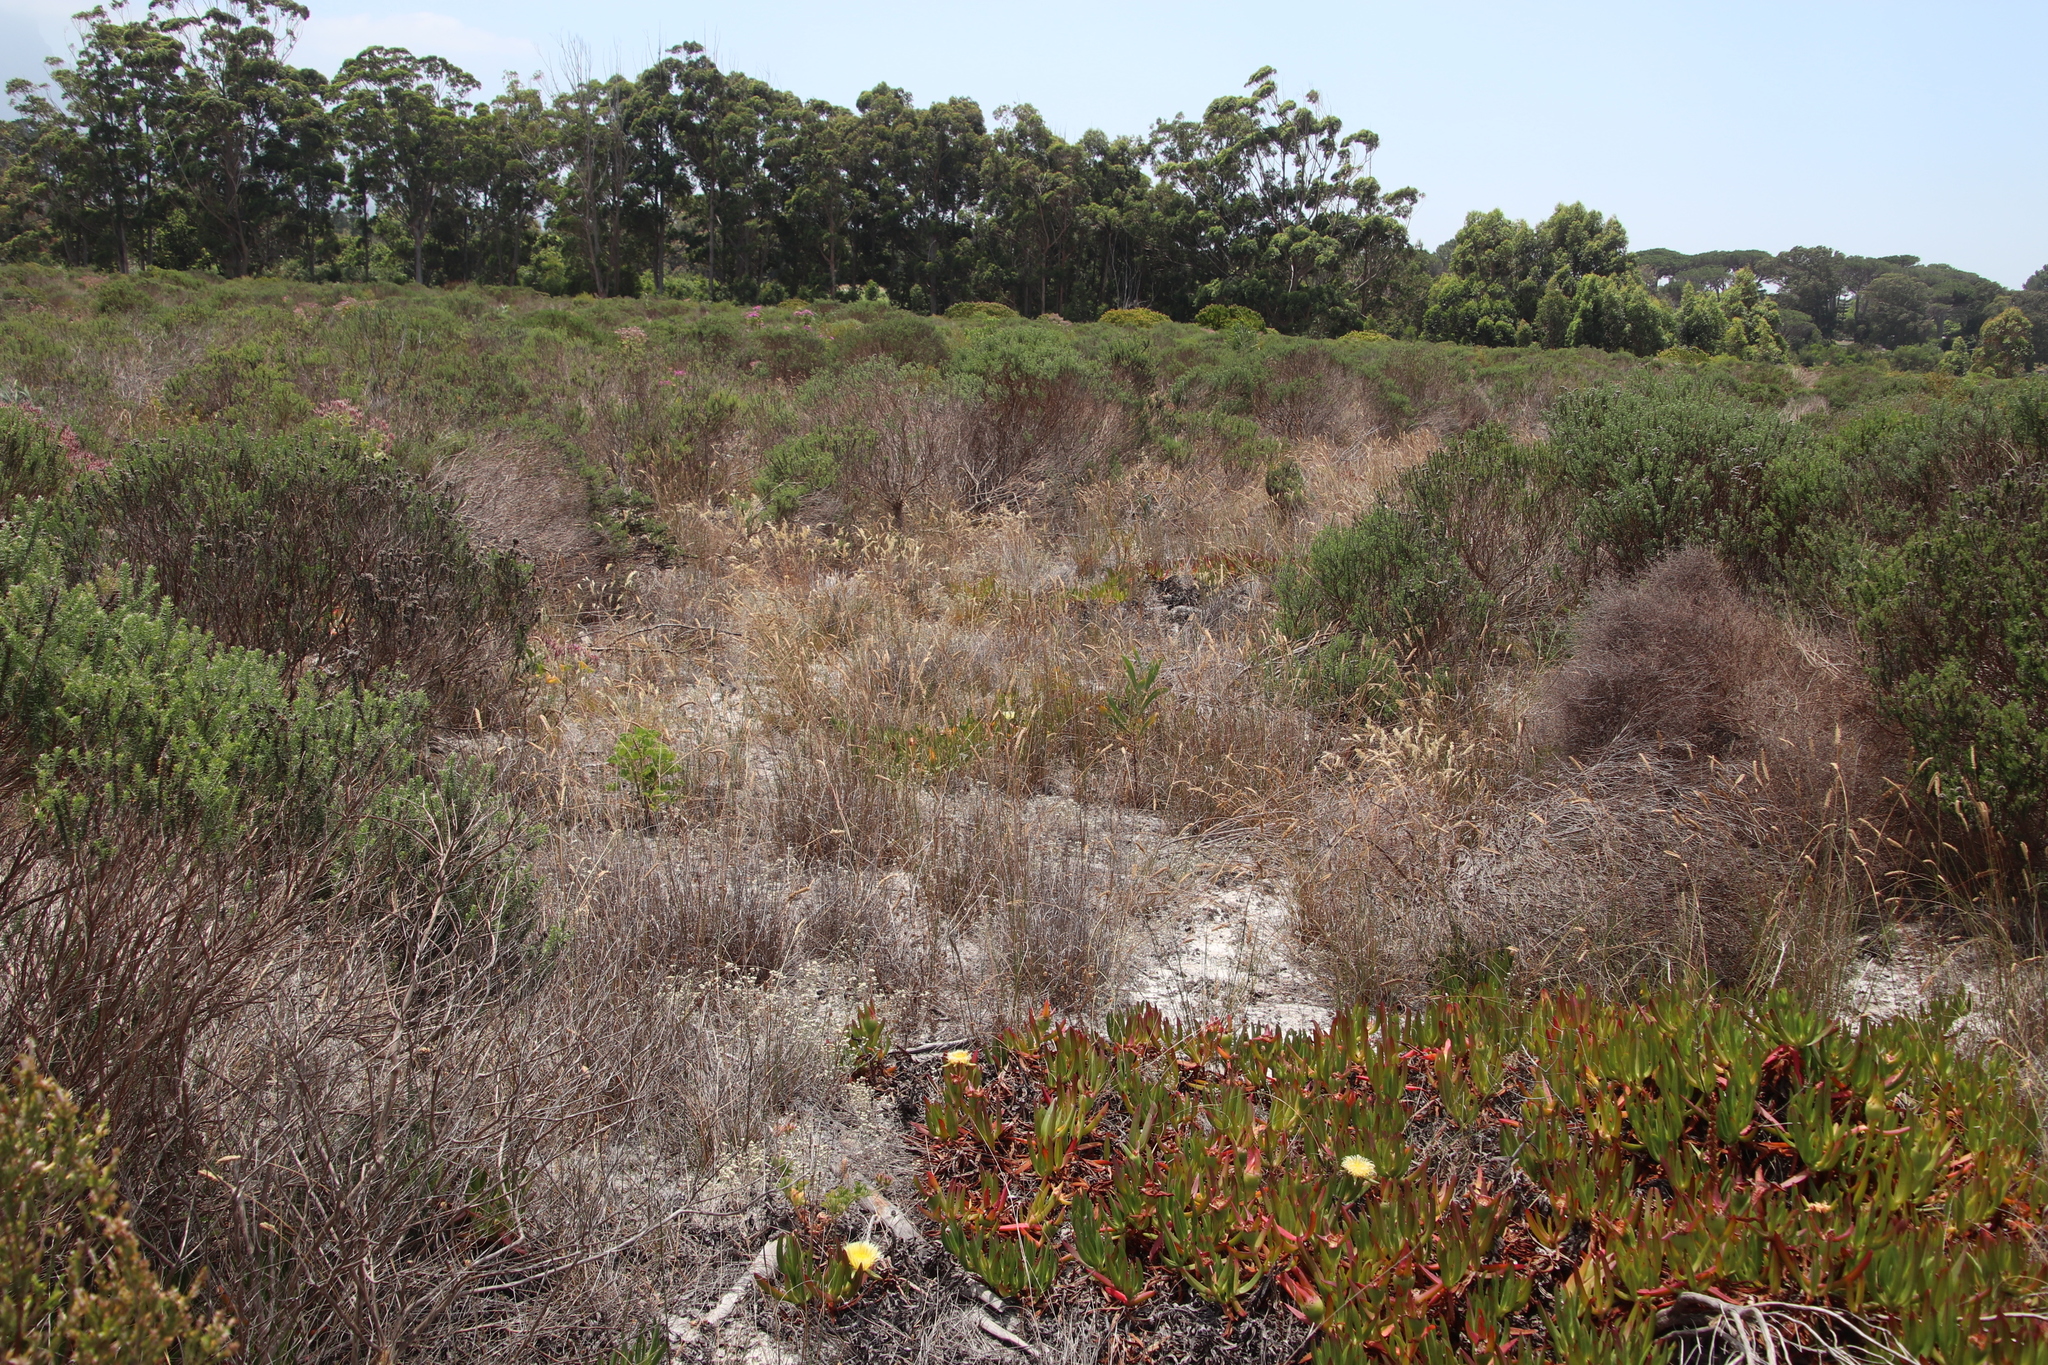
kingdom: Plantae
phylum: Tracheophyta
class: Liliopsida
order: Poales
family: Poaceae
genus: Pentameris
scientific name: Pentameris pallida
